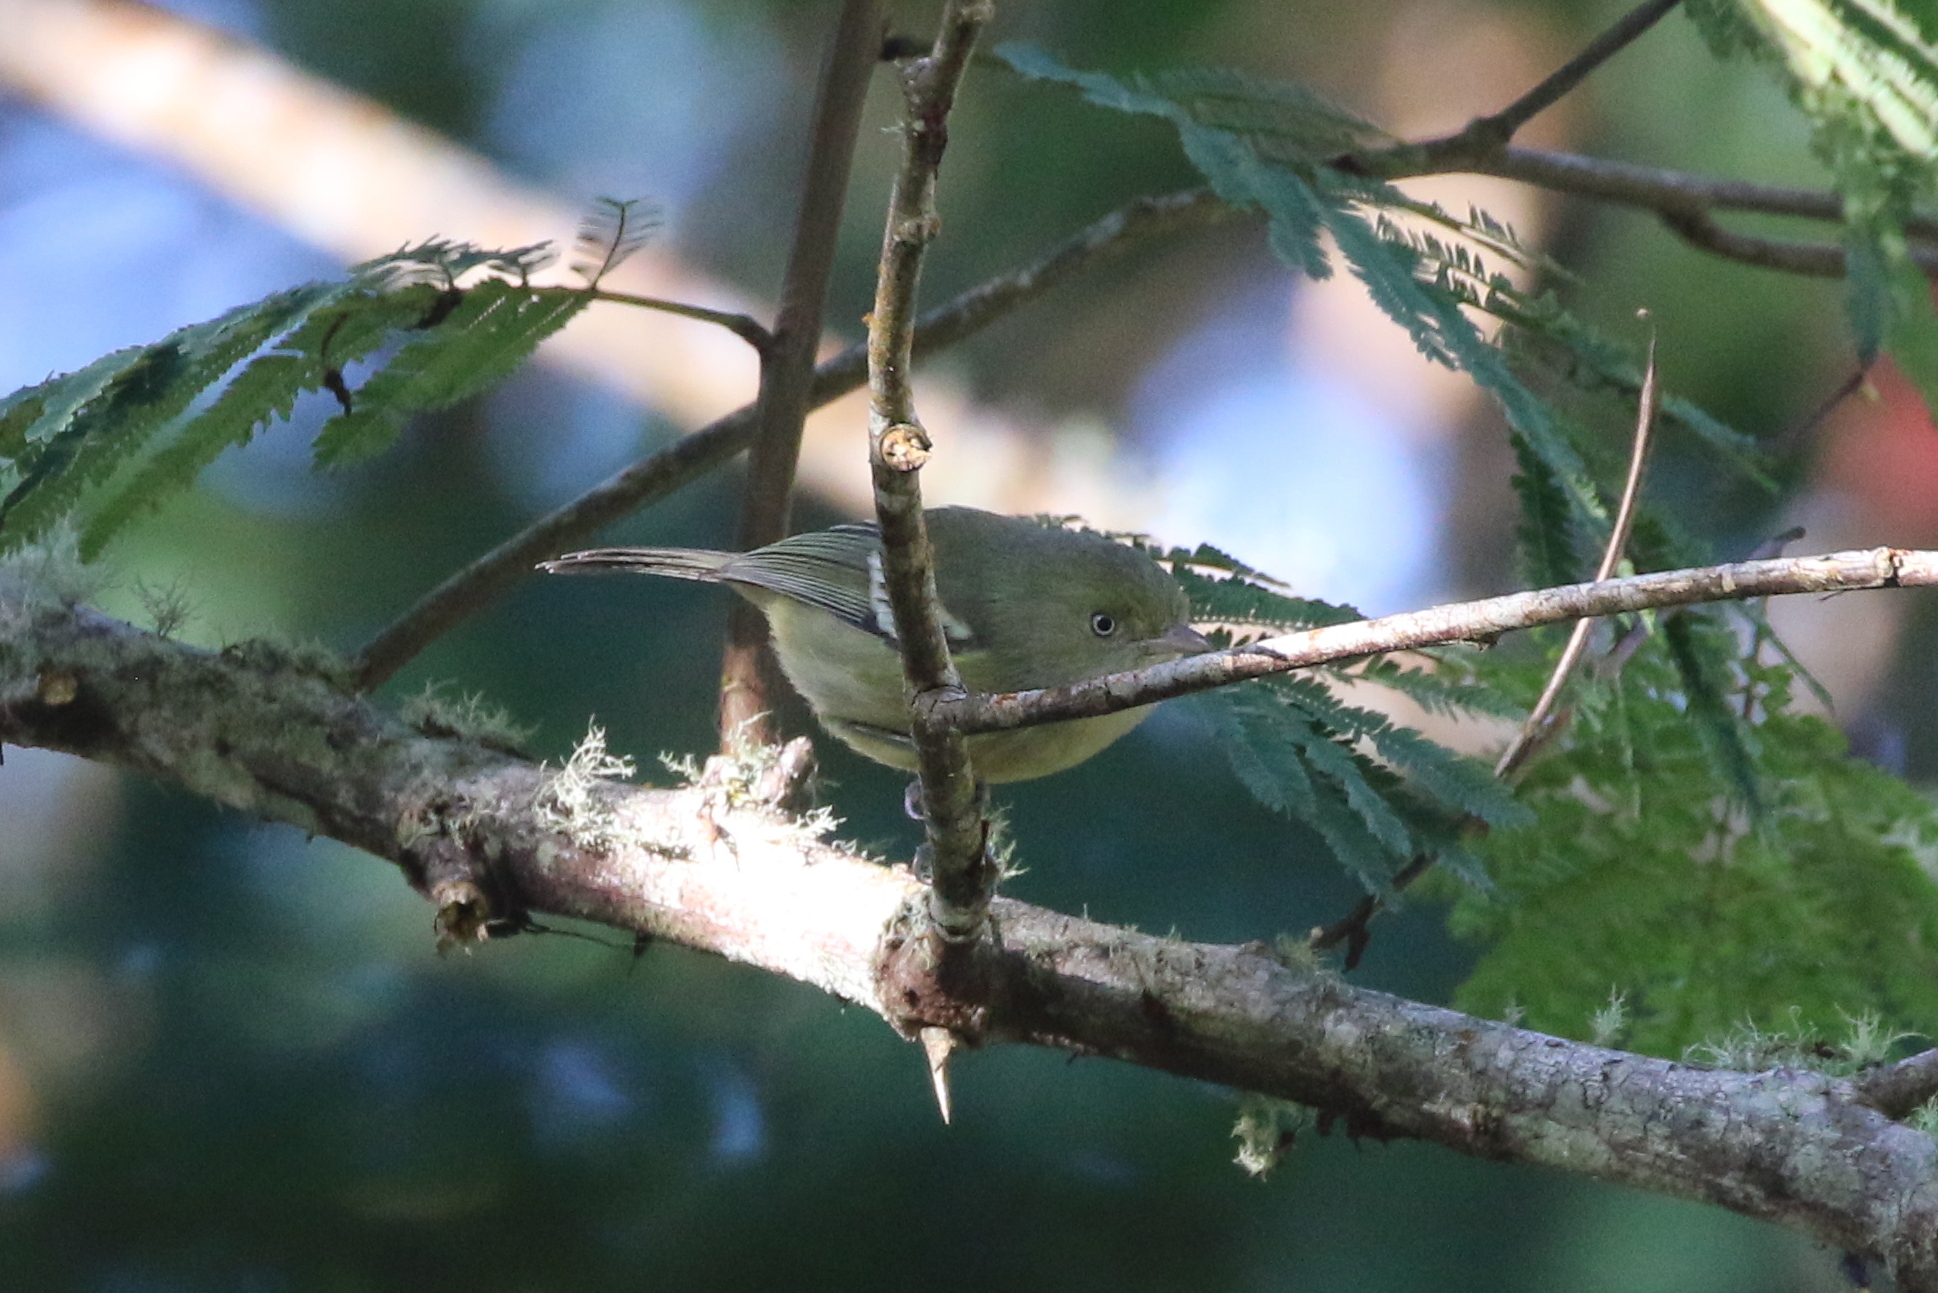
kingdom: Animalia
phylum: Chordata
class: Aves
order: Passeriformes
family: Vireonidae
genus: Vireo
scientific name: Vireo modestus
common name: Jamaican vireo
